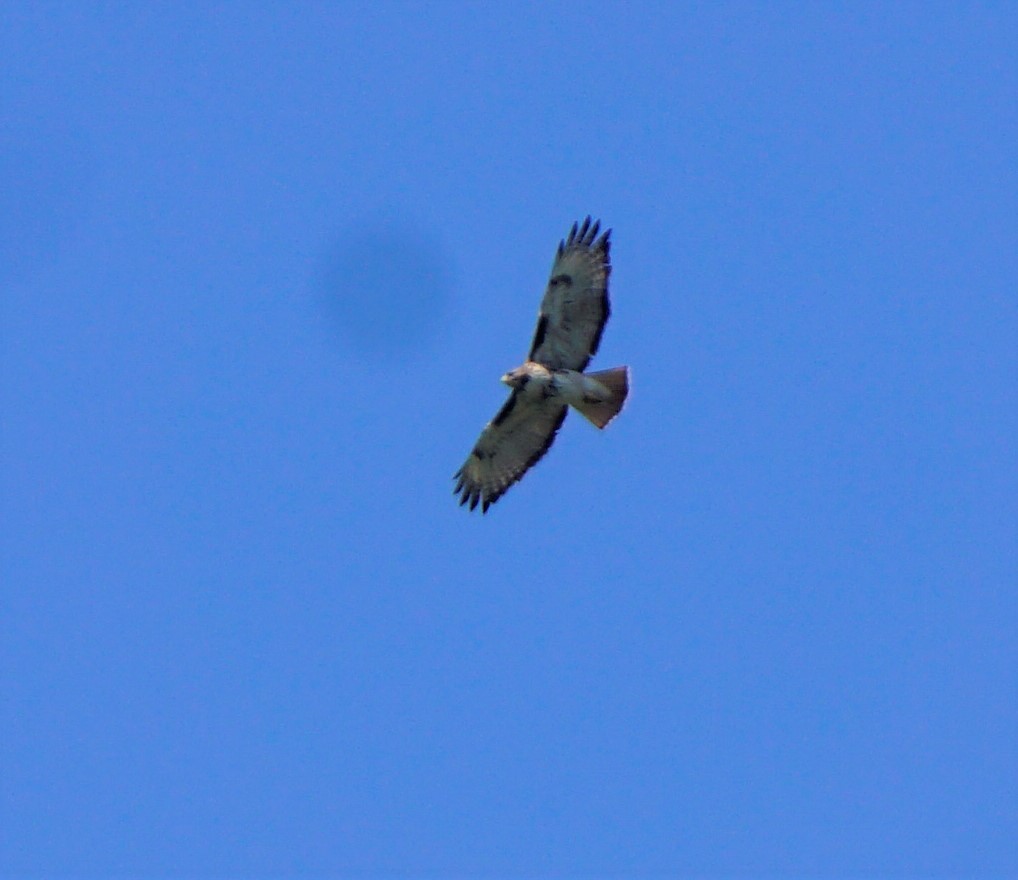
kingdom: Animalia
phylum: Chordata
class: Aves
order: Accipitriformes
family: Accipitridae
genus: Buteo
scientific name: Buteo jamaicensis
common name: Red-tailed hawk
